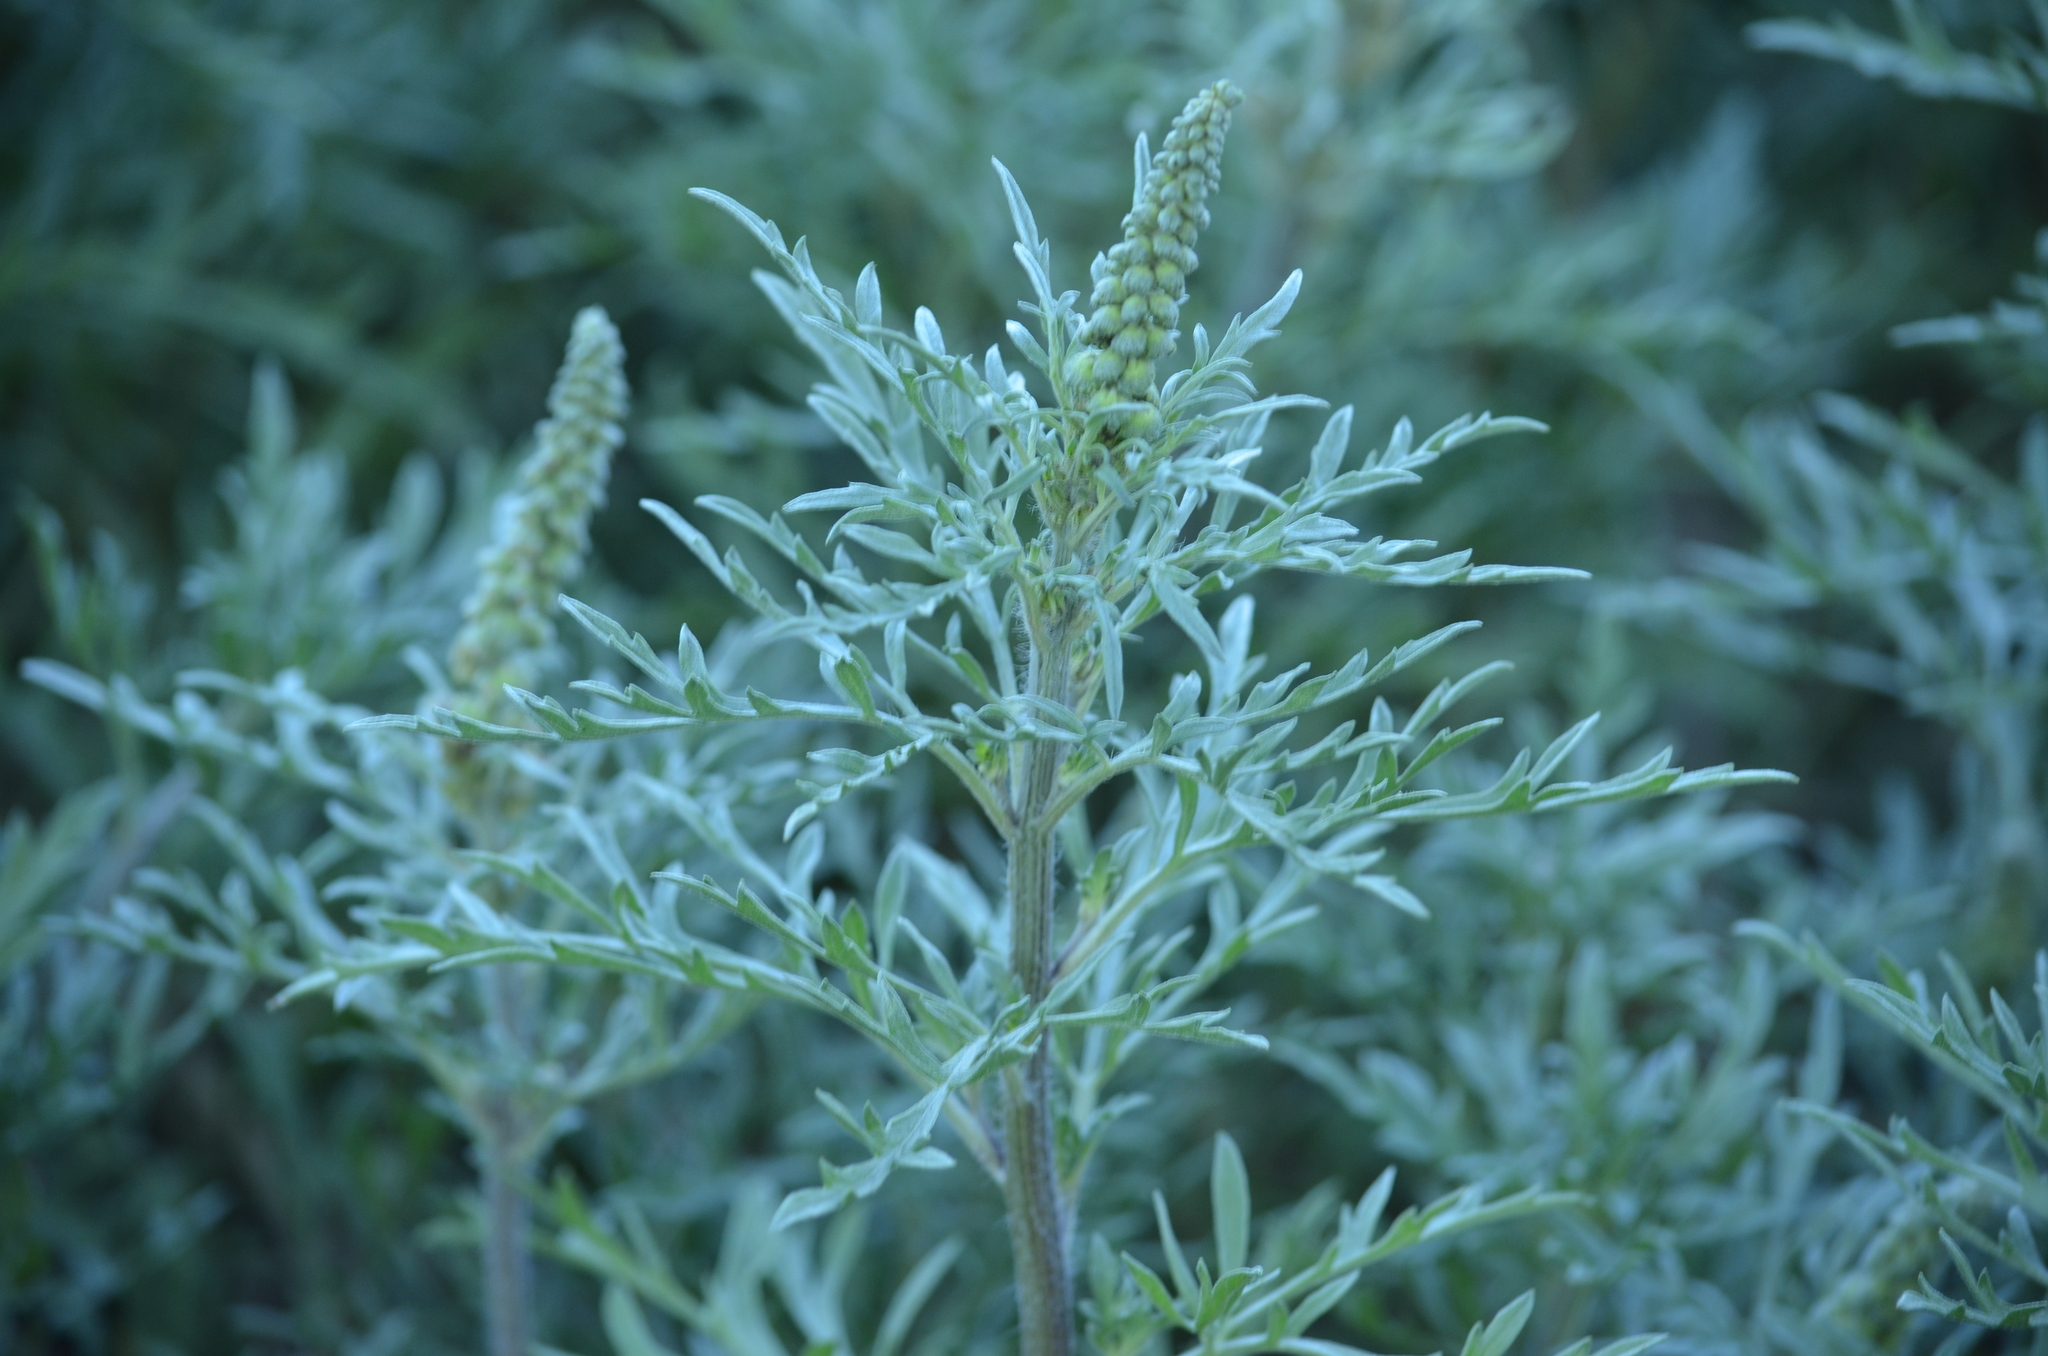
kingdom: Plantae
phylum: Tracheophyta
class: Magnoliopsida
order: Asterales
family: Asteraceae
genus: Ambrosia
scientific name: Ambrosia chamissonis
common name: Beachbur
